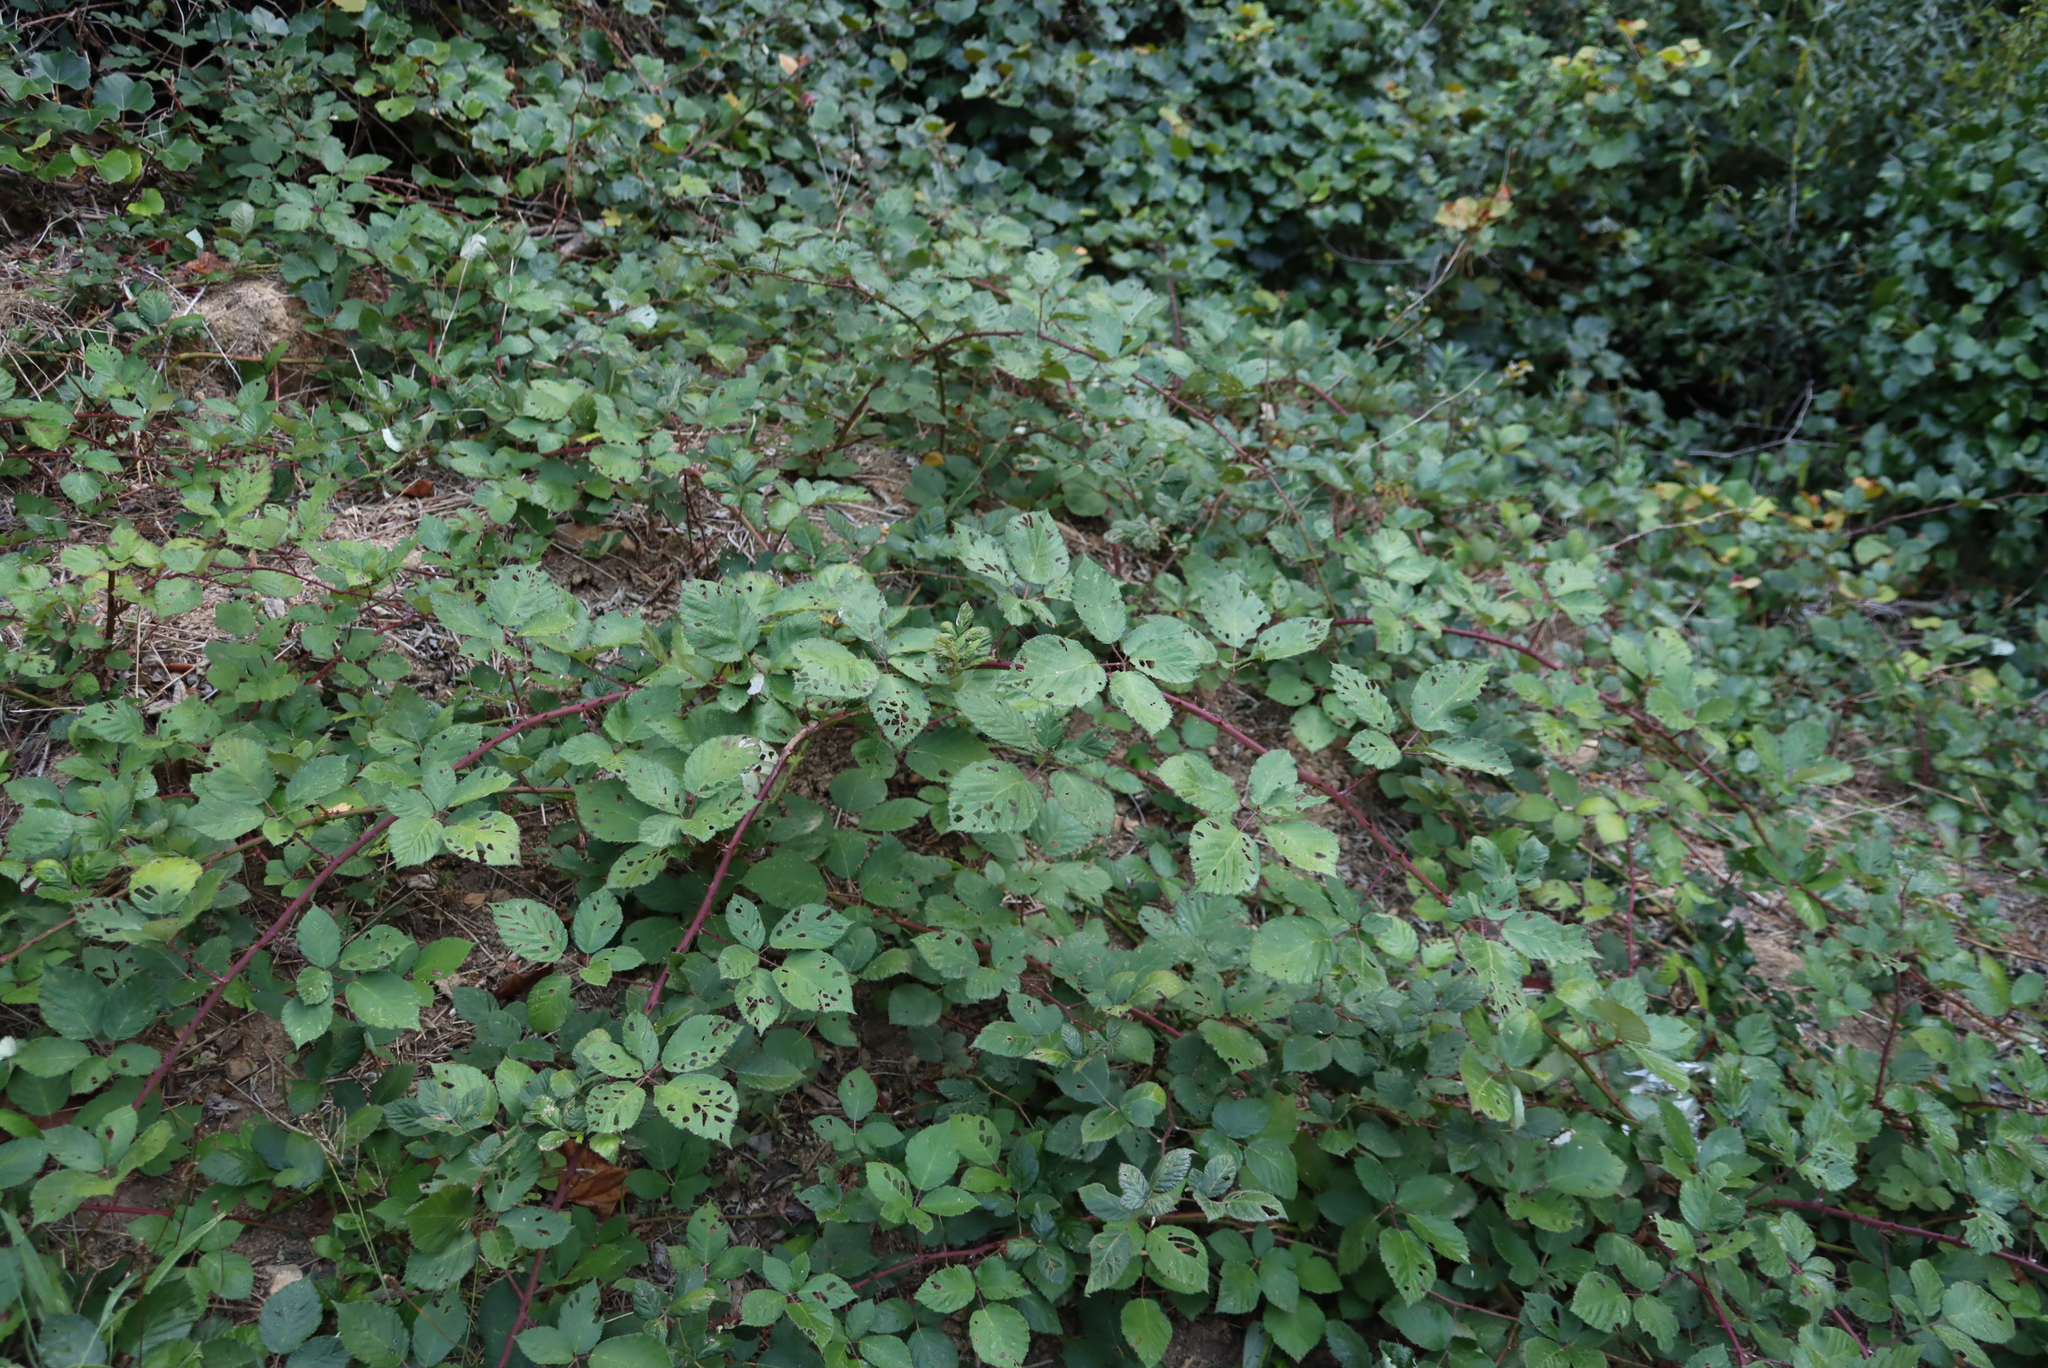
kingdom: Plantae
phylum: Tracheophyta
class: Magnoliopsida
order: Rosales
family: Rosaceae
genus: Rubus
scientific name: Rubus armeniacus
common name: Himalayan blackberry
